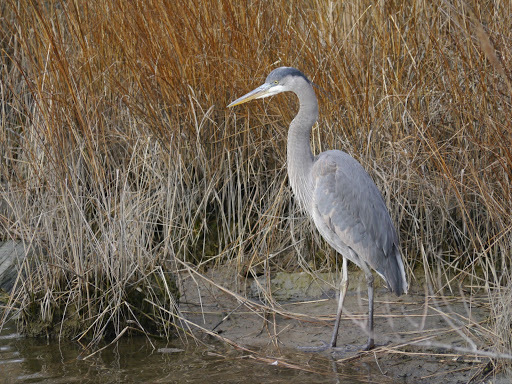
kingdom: Animalia
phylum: Chordata
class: Aves
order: Pelecaniformes
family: Ardeidae
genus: Ardea
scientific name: Ardea herodias
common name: Great blue heron
